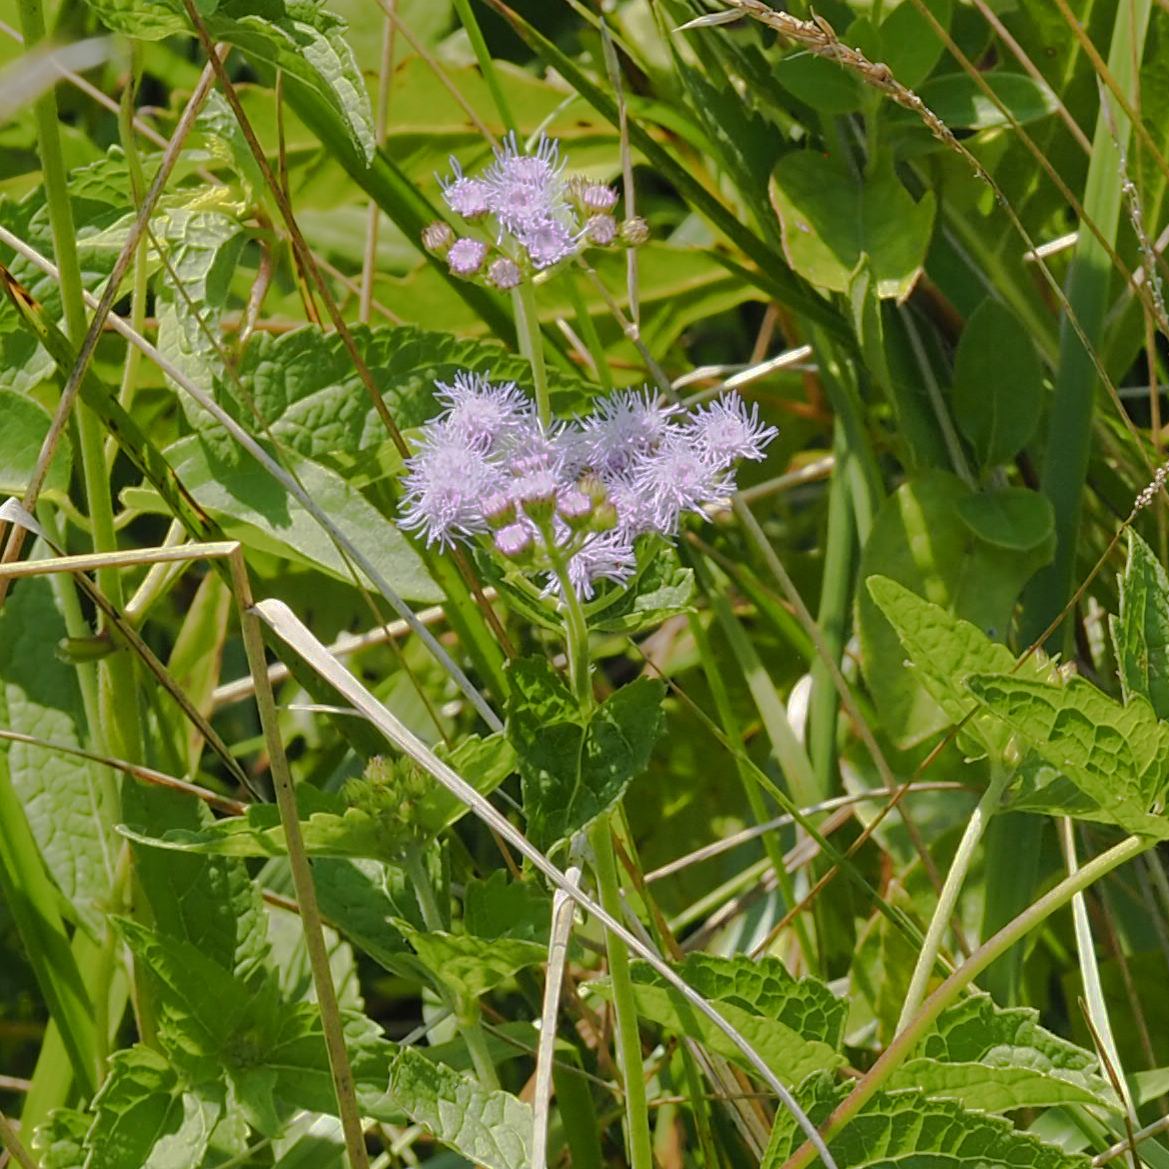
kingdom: Plantae
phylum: Tracheophyta
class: Magnoliopsida
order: Asterales
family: Asteraceae
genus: Conoclinium
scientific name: Conoclinium coelestinum
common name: Blue mistflower
